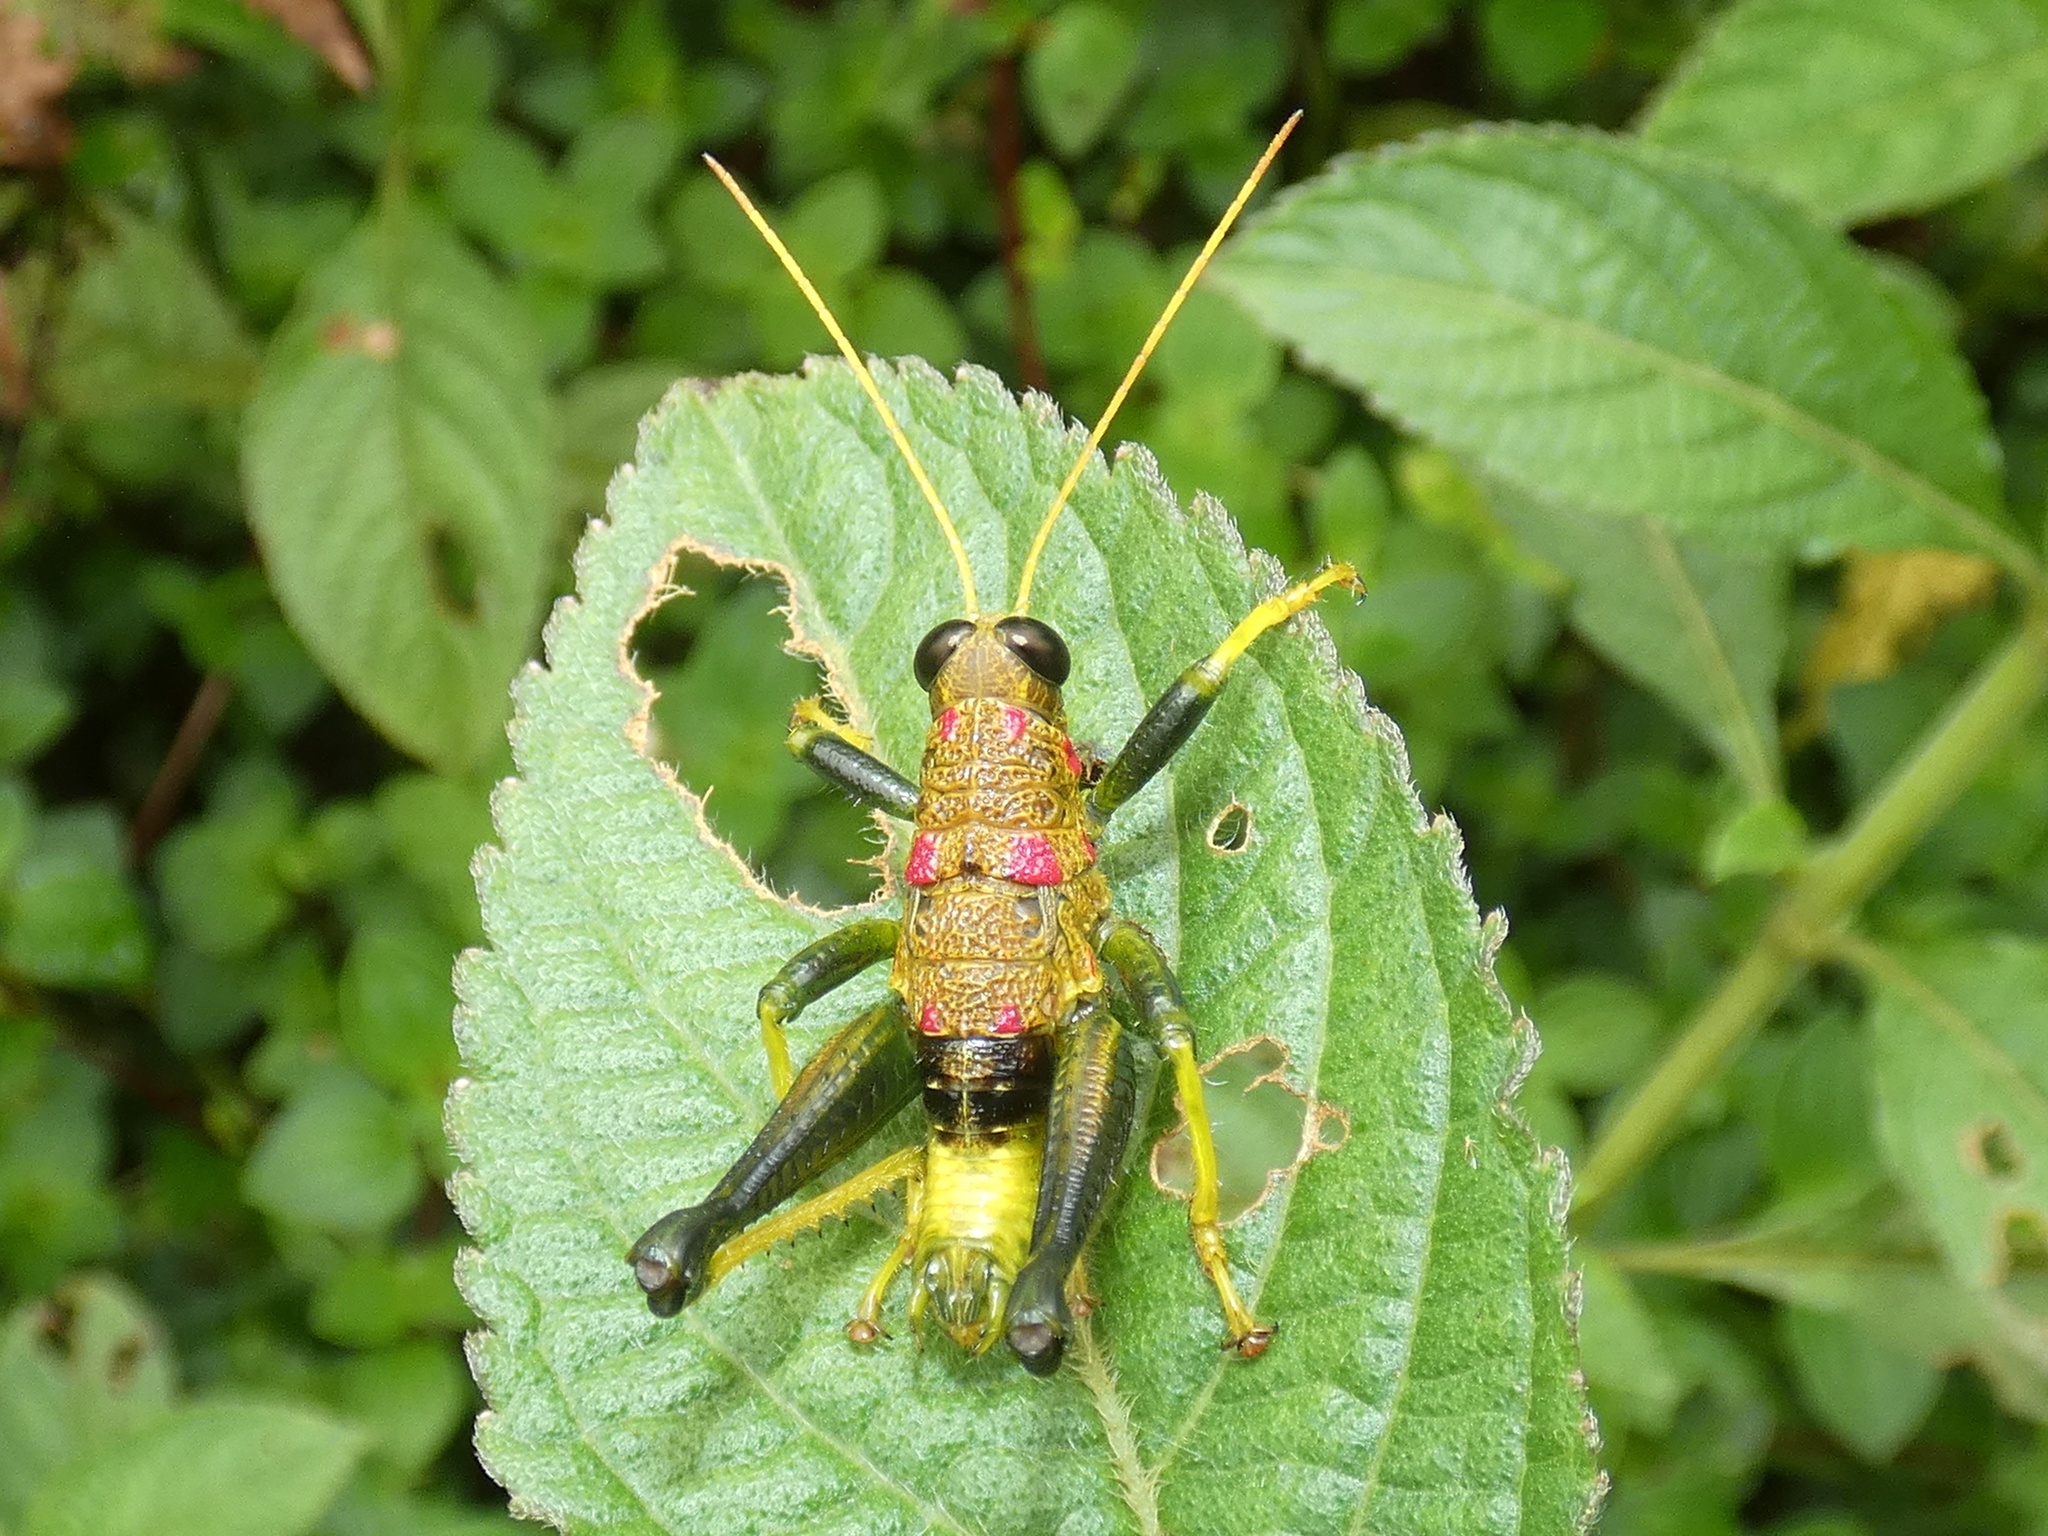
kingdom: Animalia
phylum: Arthropoda
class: Insecta
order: Orthoptera
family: Acrididae
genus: Rhachicreagra
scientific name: Rhachicreagra dierythra
